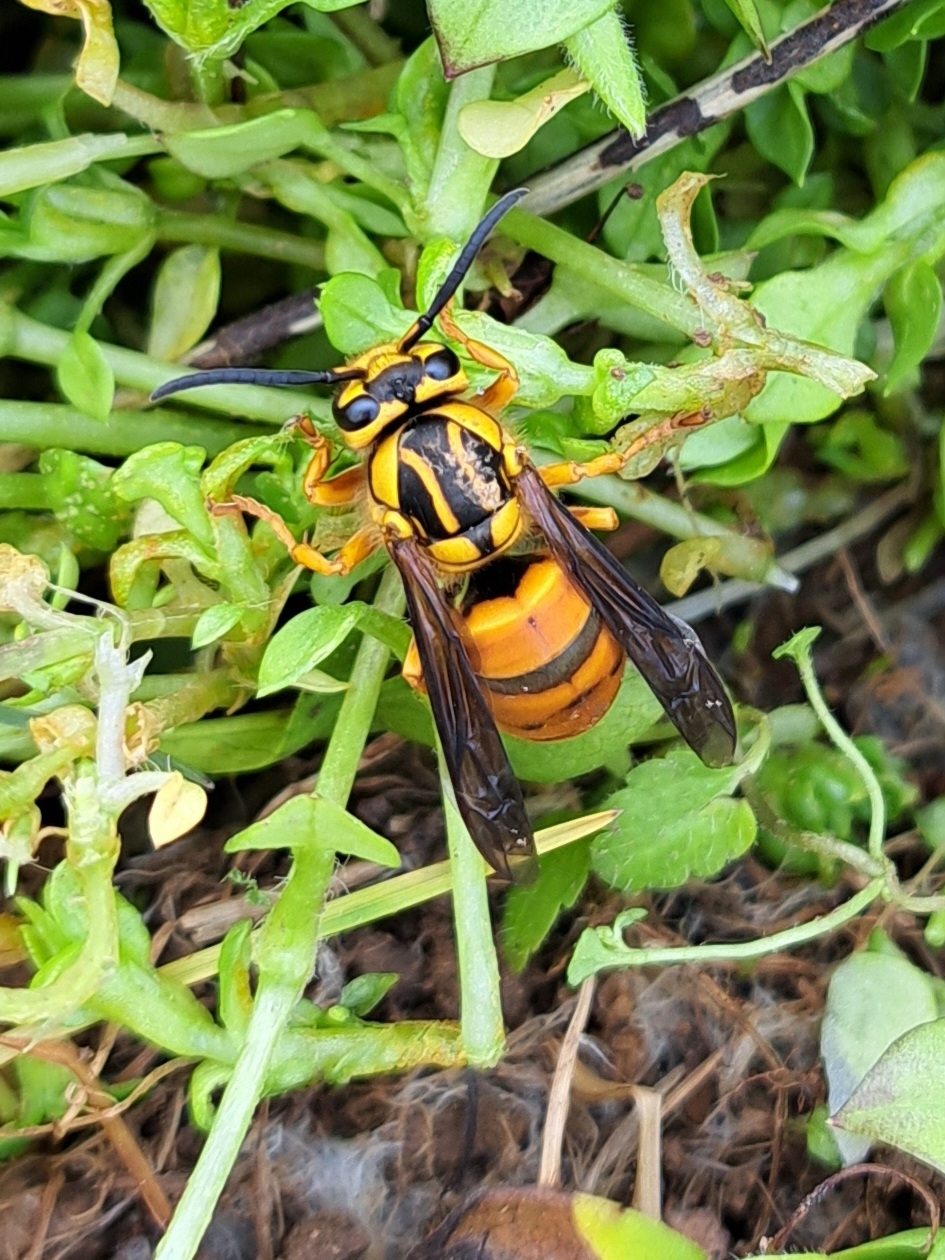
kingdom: Animalia
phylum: Arthropoda
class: Insecta
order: Hymenoptera
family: Vespidae
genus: Vespula
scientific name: Vespula squamosa
